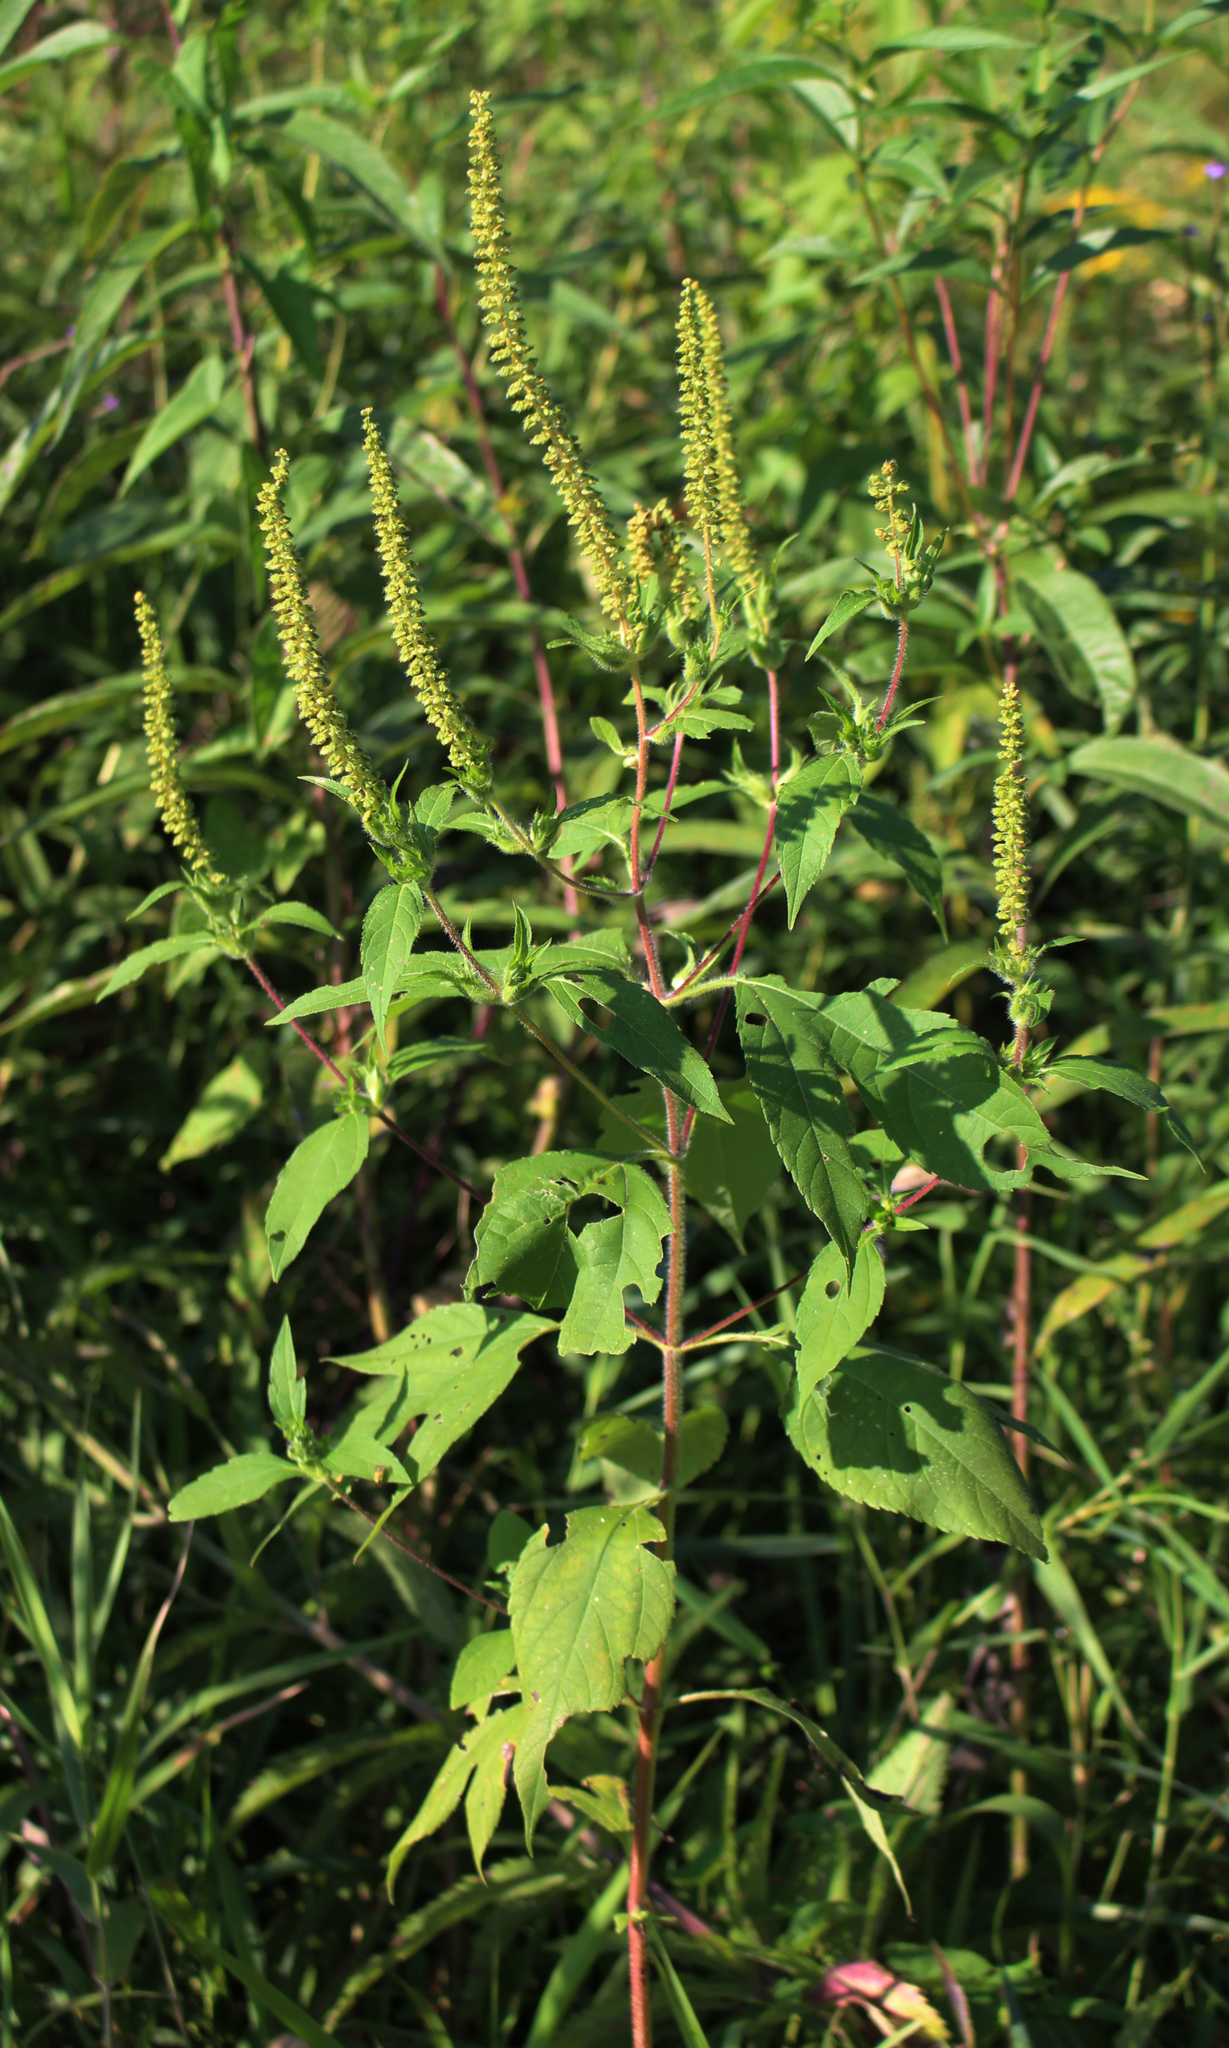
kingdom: Plantae
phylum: Tracheophyta
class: Magnoliopsida
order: Asterales
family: Asteraceae
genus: Ambrosia
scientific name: Ambrosia trifida
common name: Giant ragweed
